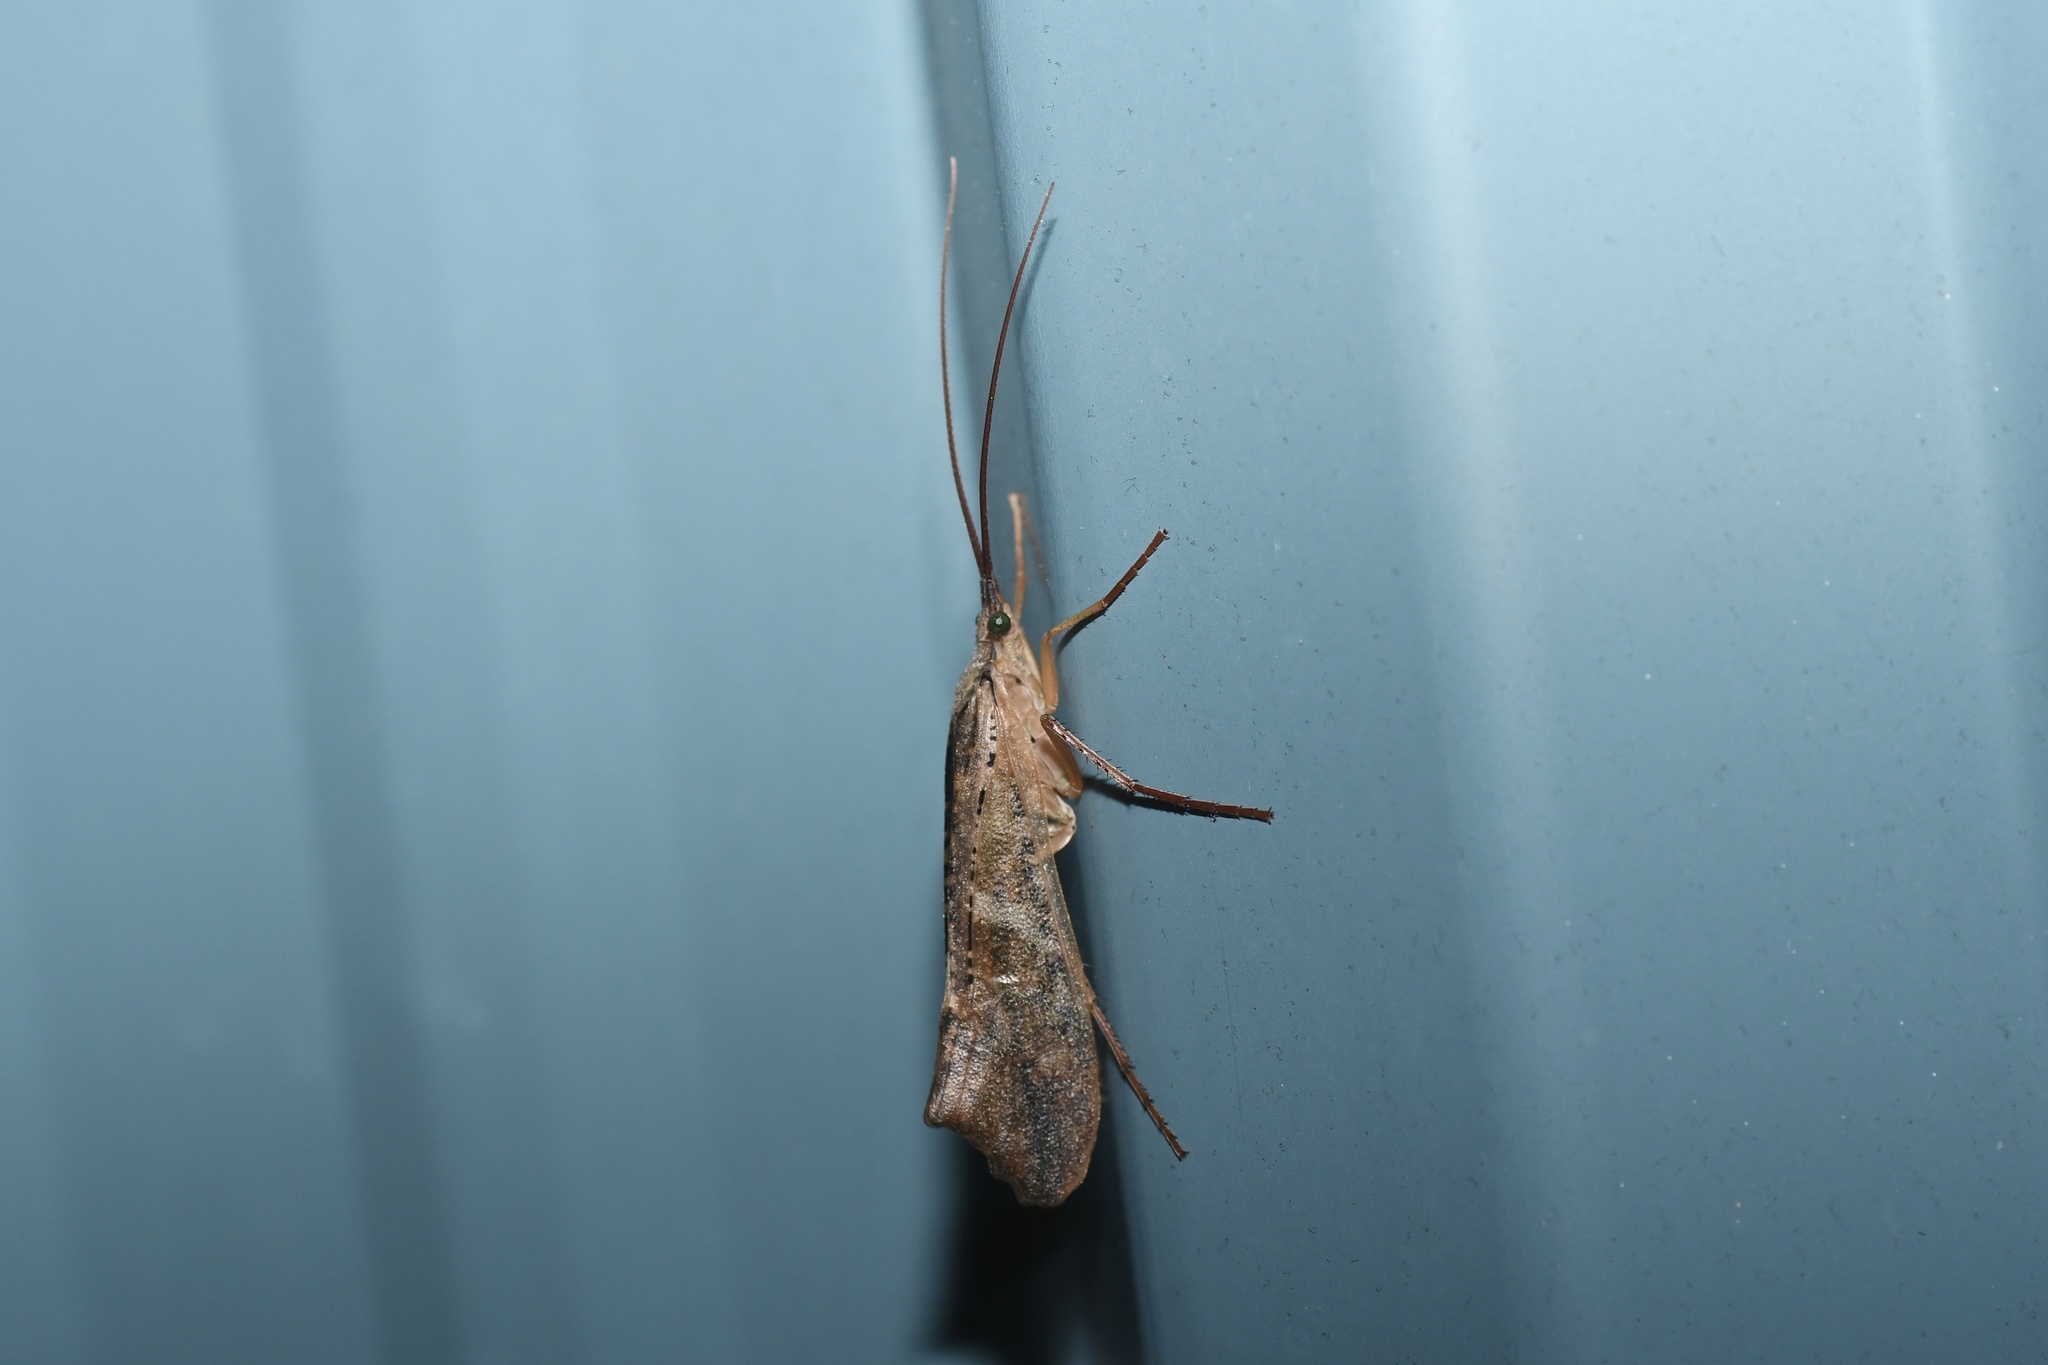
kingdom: Animalia
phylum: Arthropoda
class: Insecta
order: Trichoptera
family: Limnephilidae
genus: Nemotaulius
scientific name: Nemotaulius hostilis
